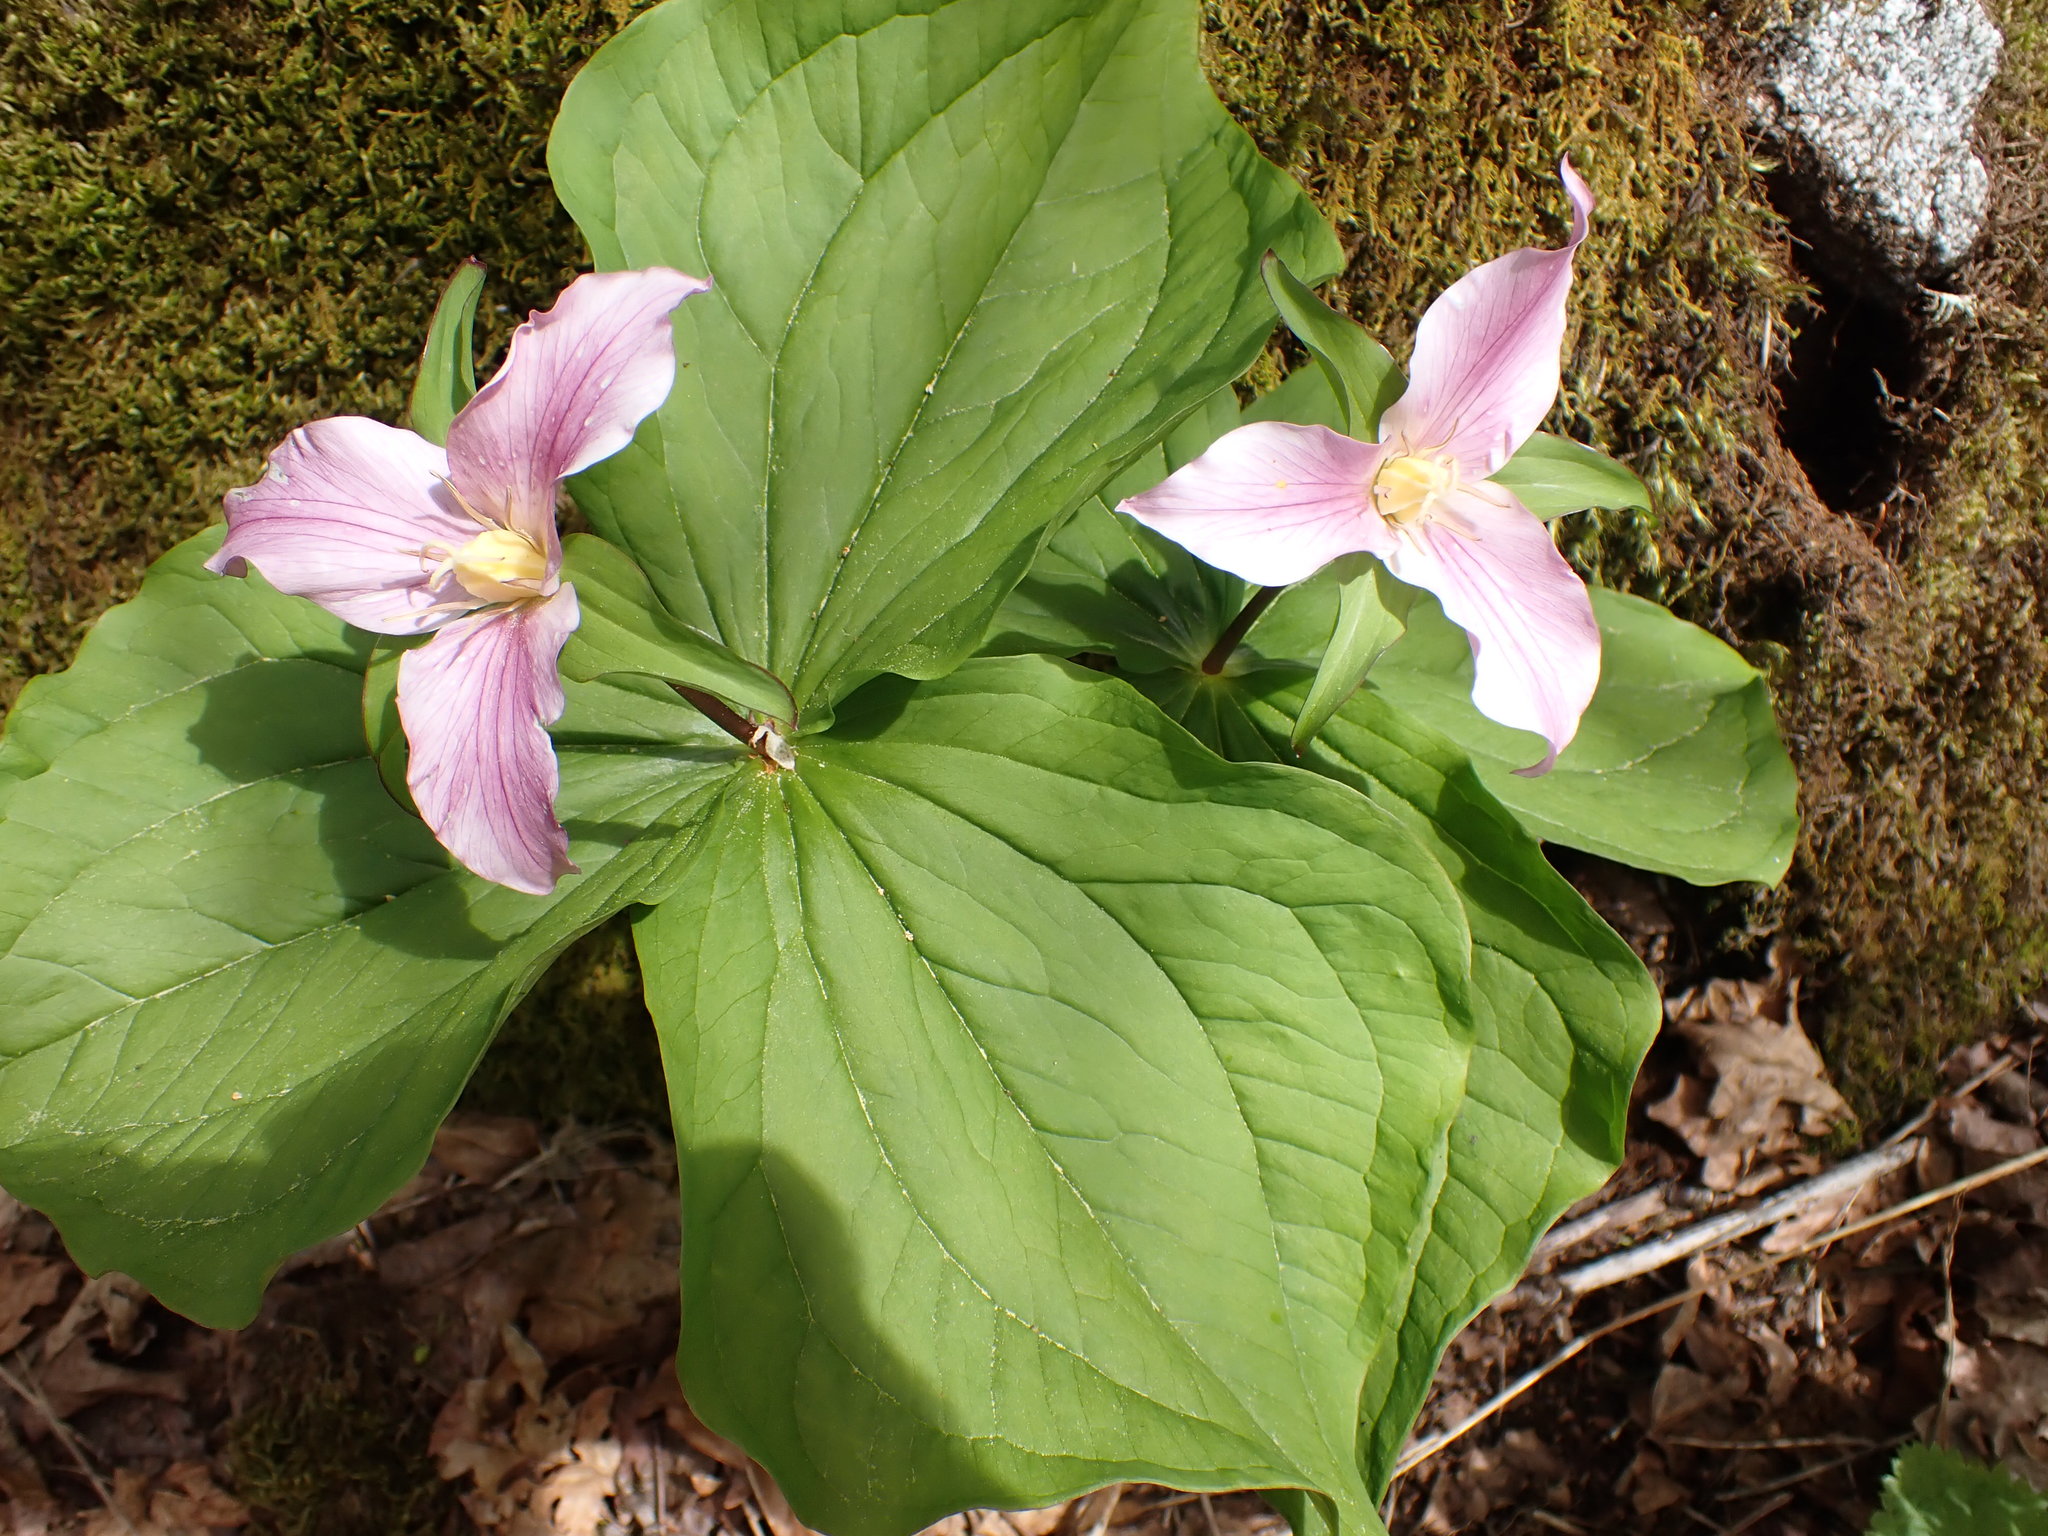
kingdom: Plantae
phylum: Tracheophyta
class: Liliopsida
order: Liliales
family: Melanthiaceae
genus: Trillium
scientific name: Trillium ovatum
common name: Pacific trillium
